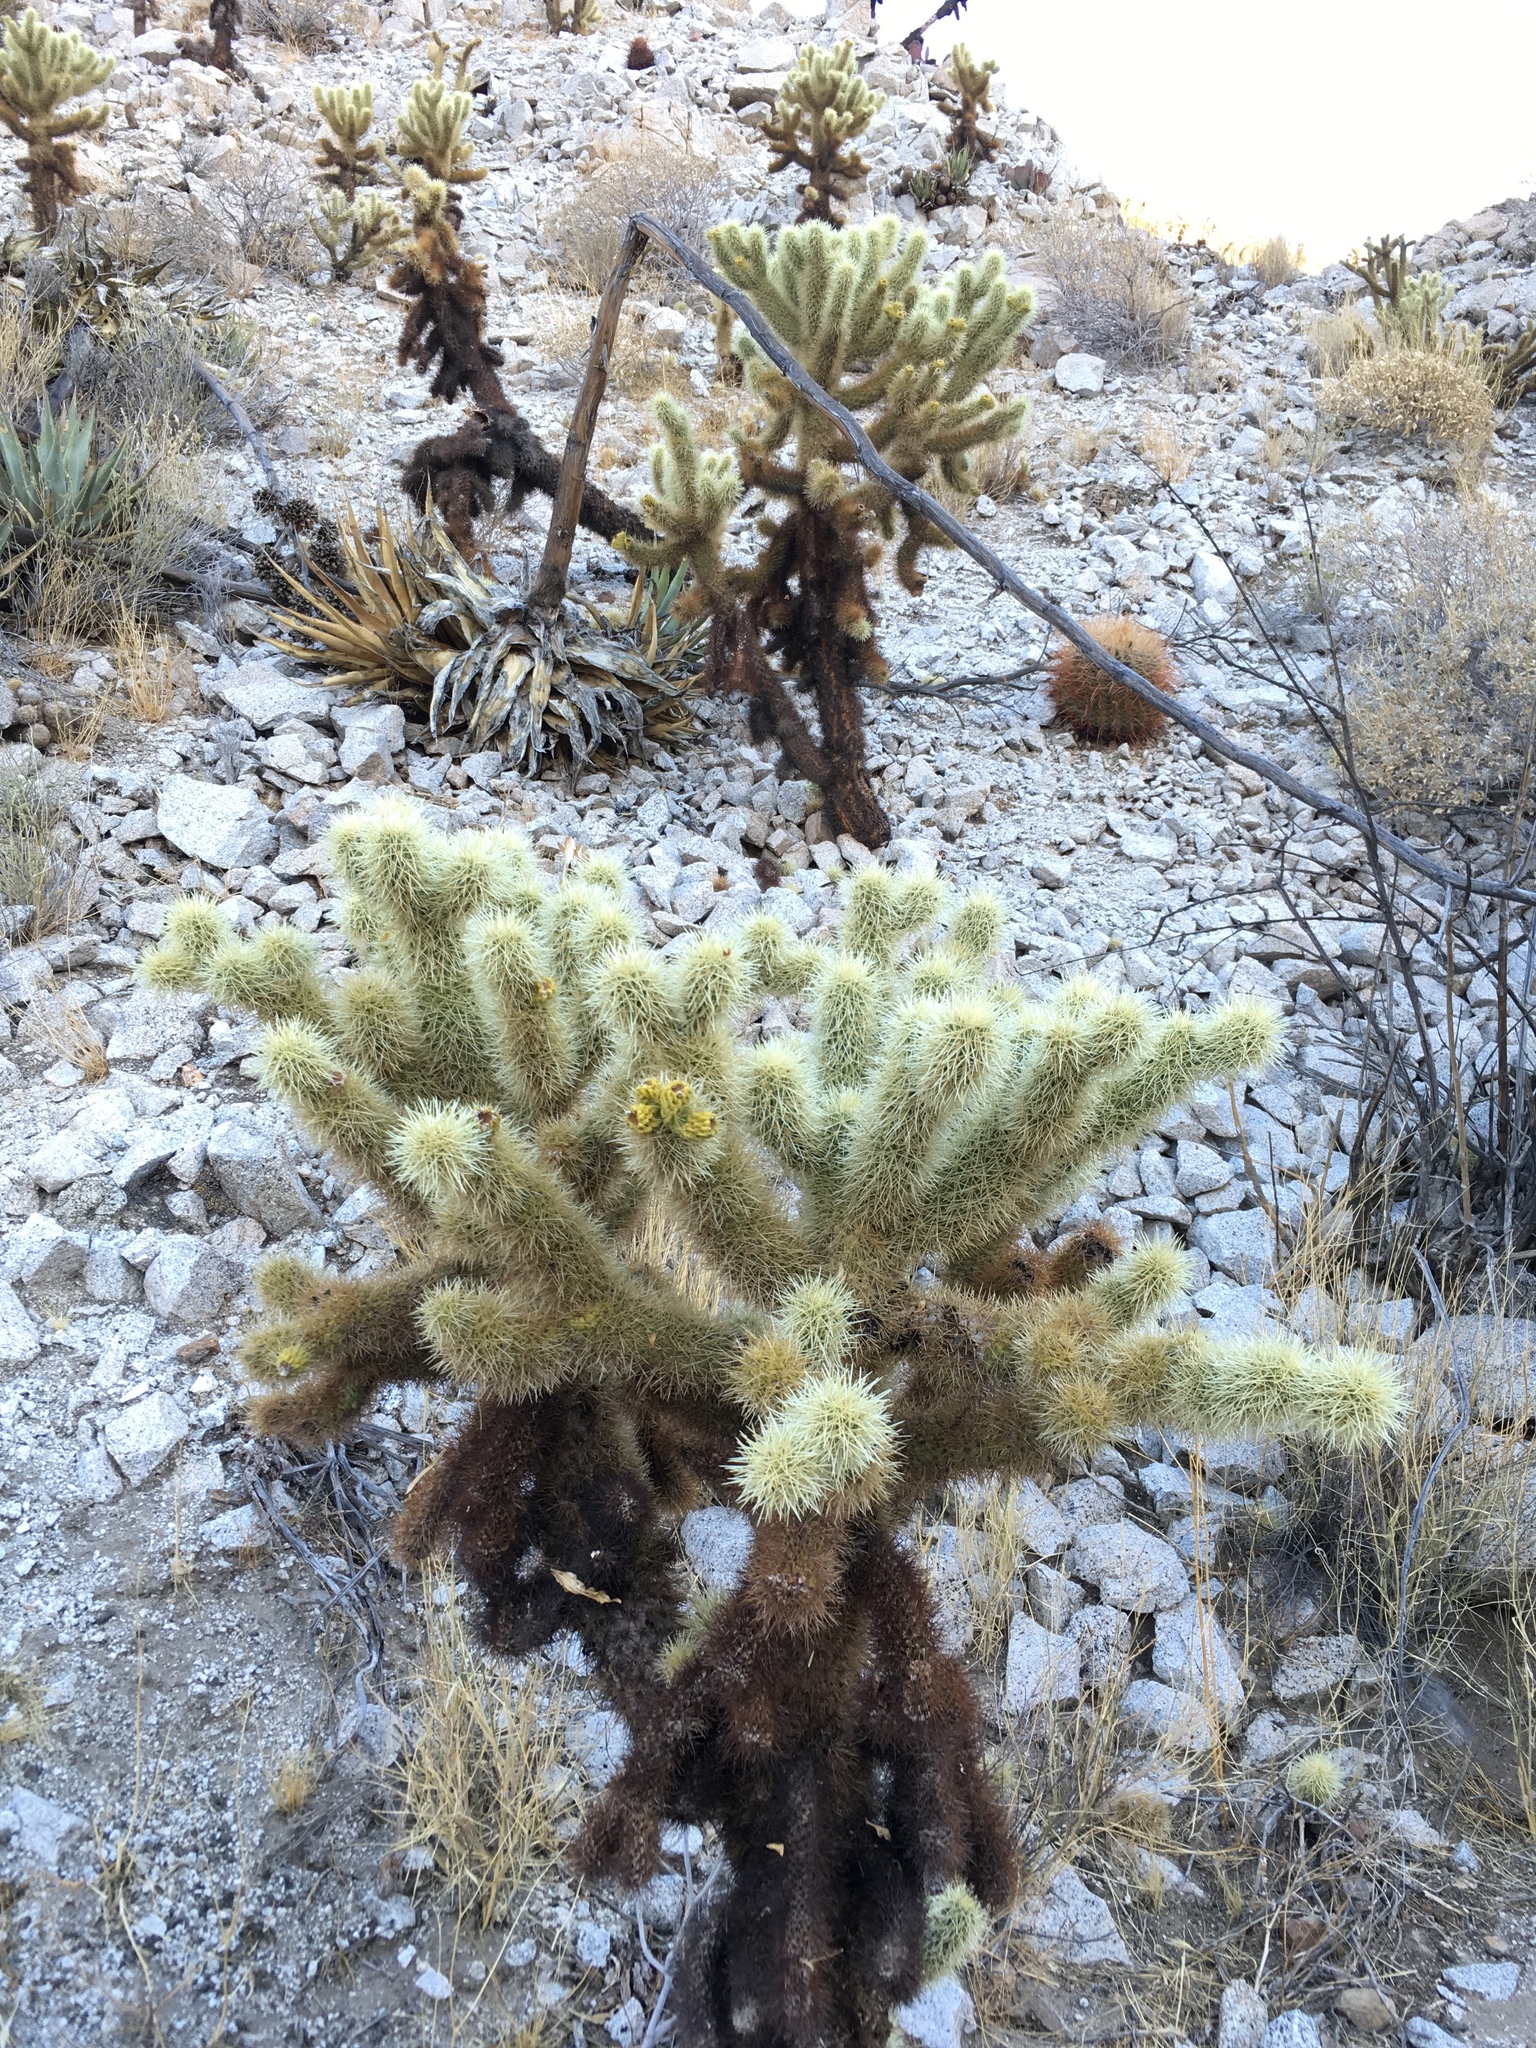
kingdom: Plantae
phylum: Tracheophyta
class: Magnoliopsida
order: Caryophyllales
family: Cactaceae
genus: Cylindropuntia
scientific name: Cylindropuntia fosbergii
